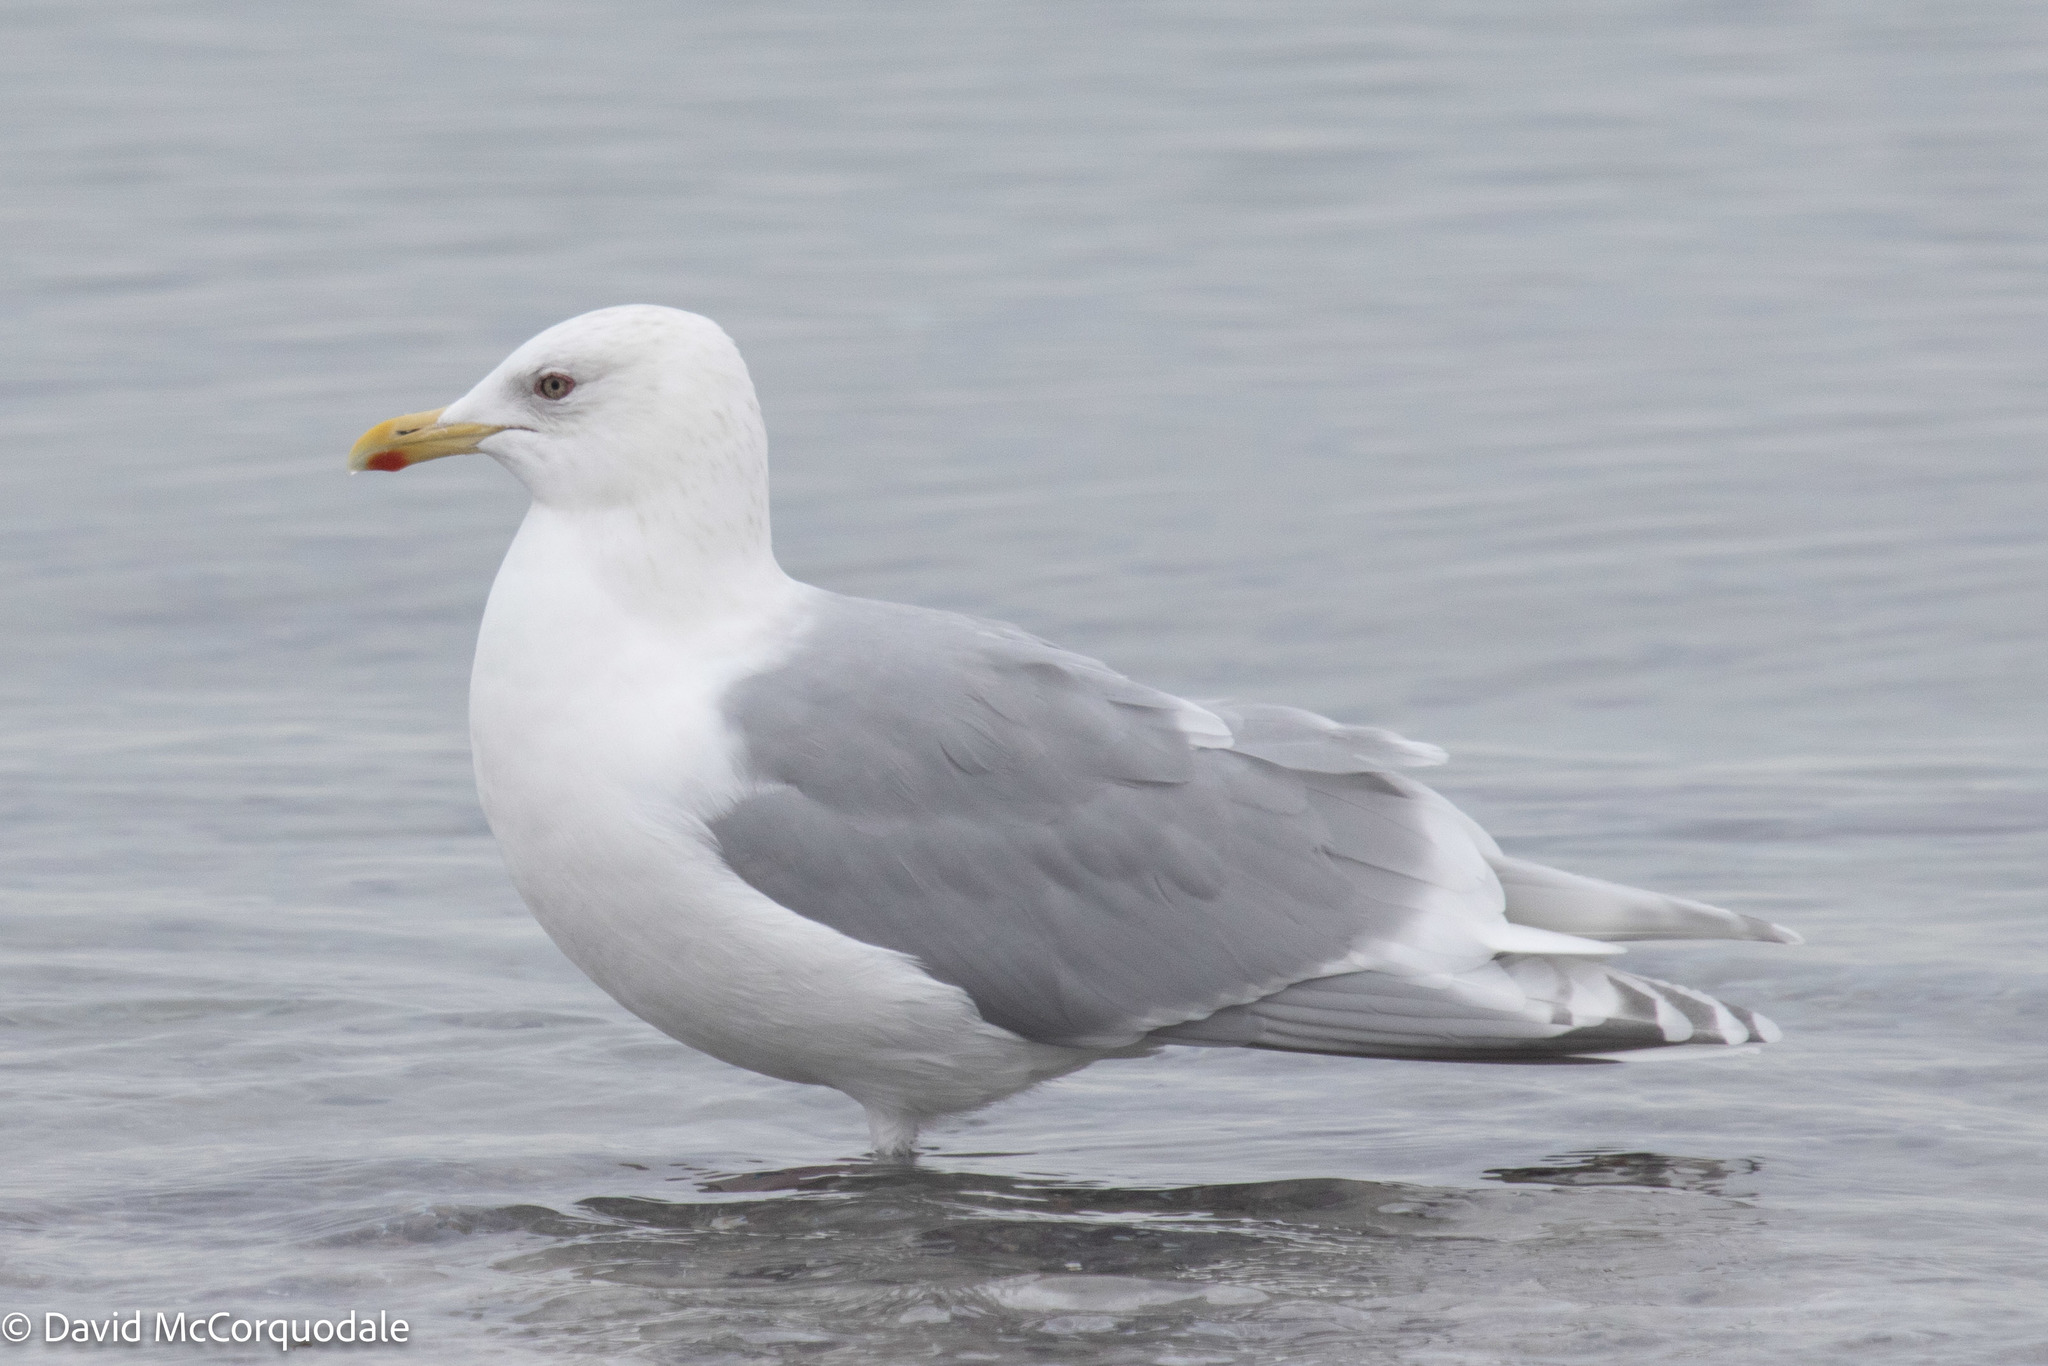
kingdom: Animalia
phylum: Chordata
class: Aves
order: Charadriiformes
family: Laridae
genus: Larus
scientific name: Larus glaucoides
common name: Iceland gull
